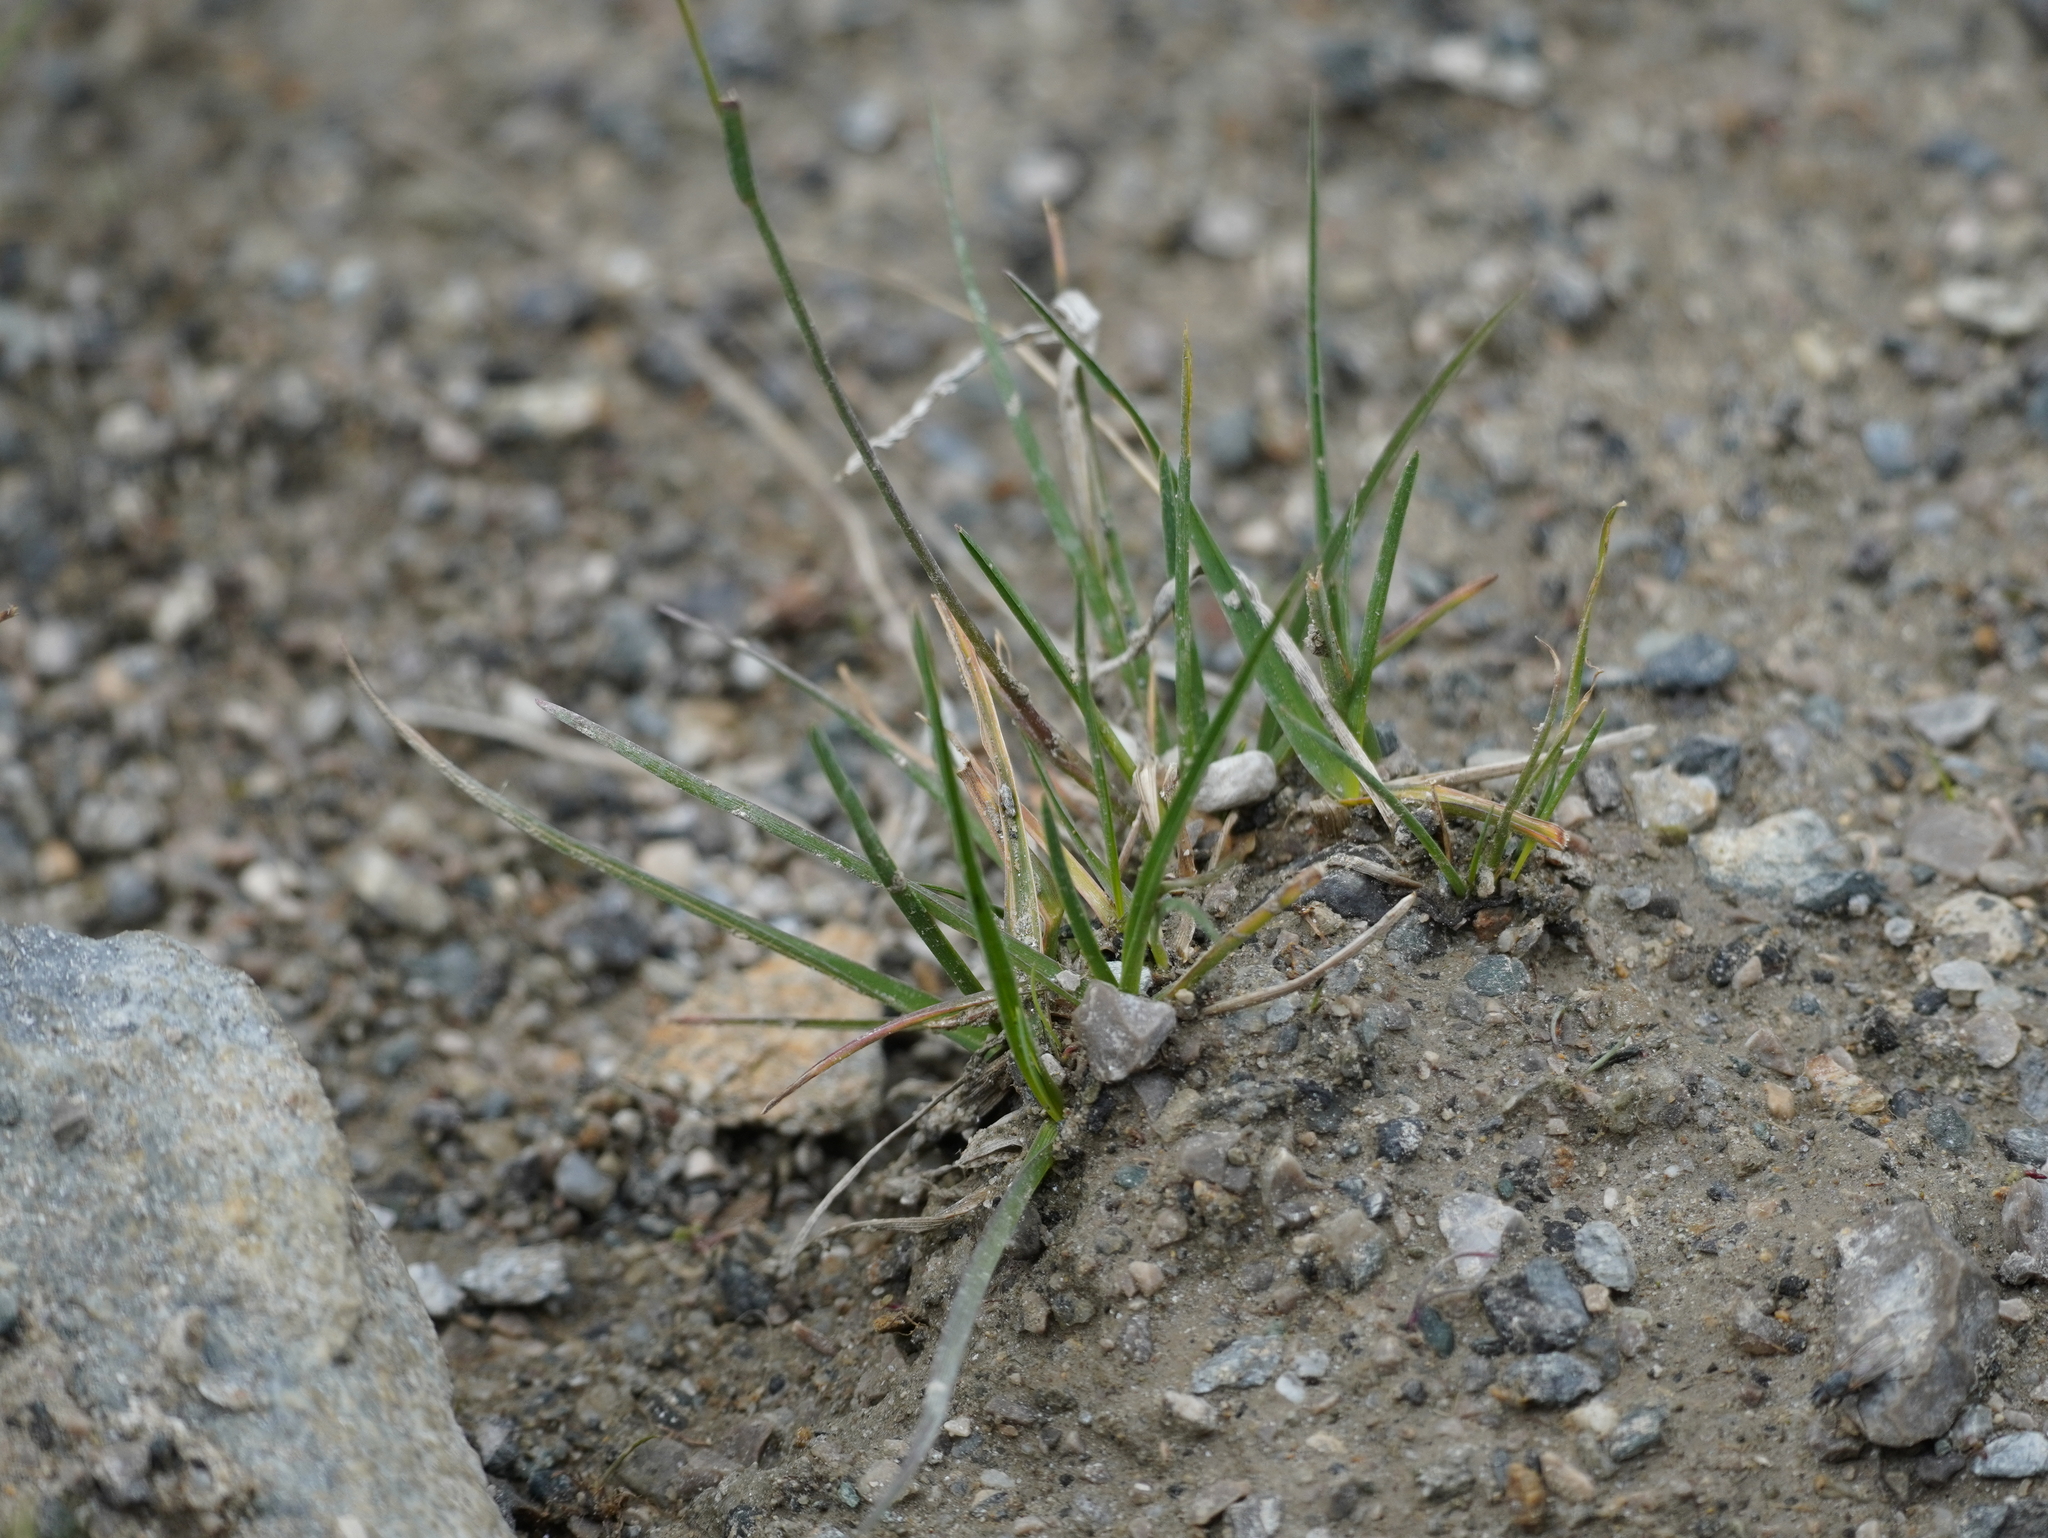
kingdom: Plantae
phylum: Tracheophyta
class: Liliopsida
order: Poales
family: Poaceae
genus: Poa
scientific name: Poa alpina
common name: Alpine bluegrass
